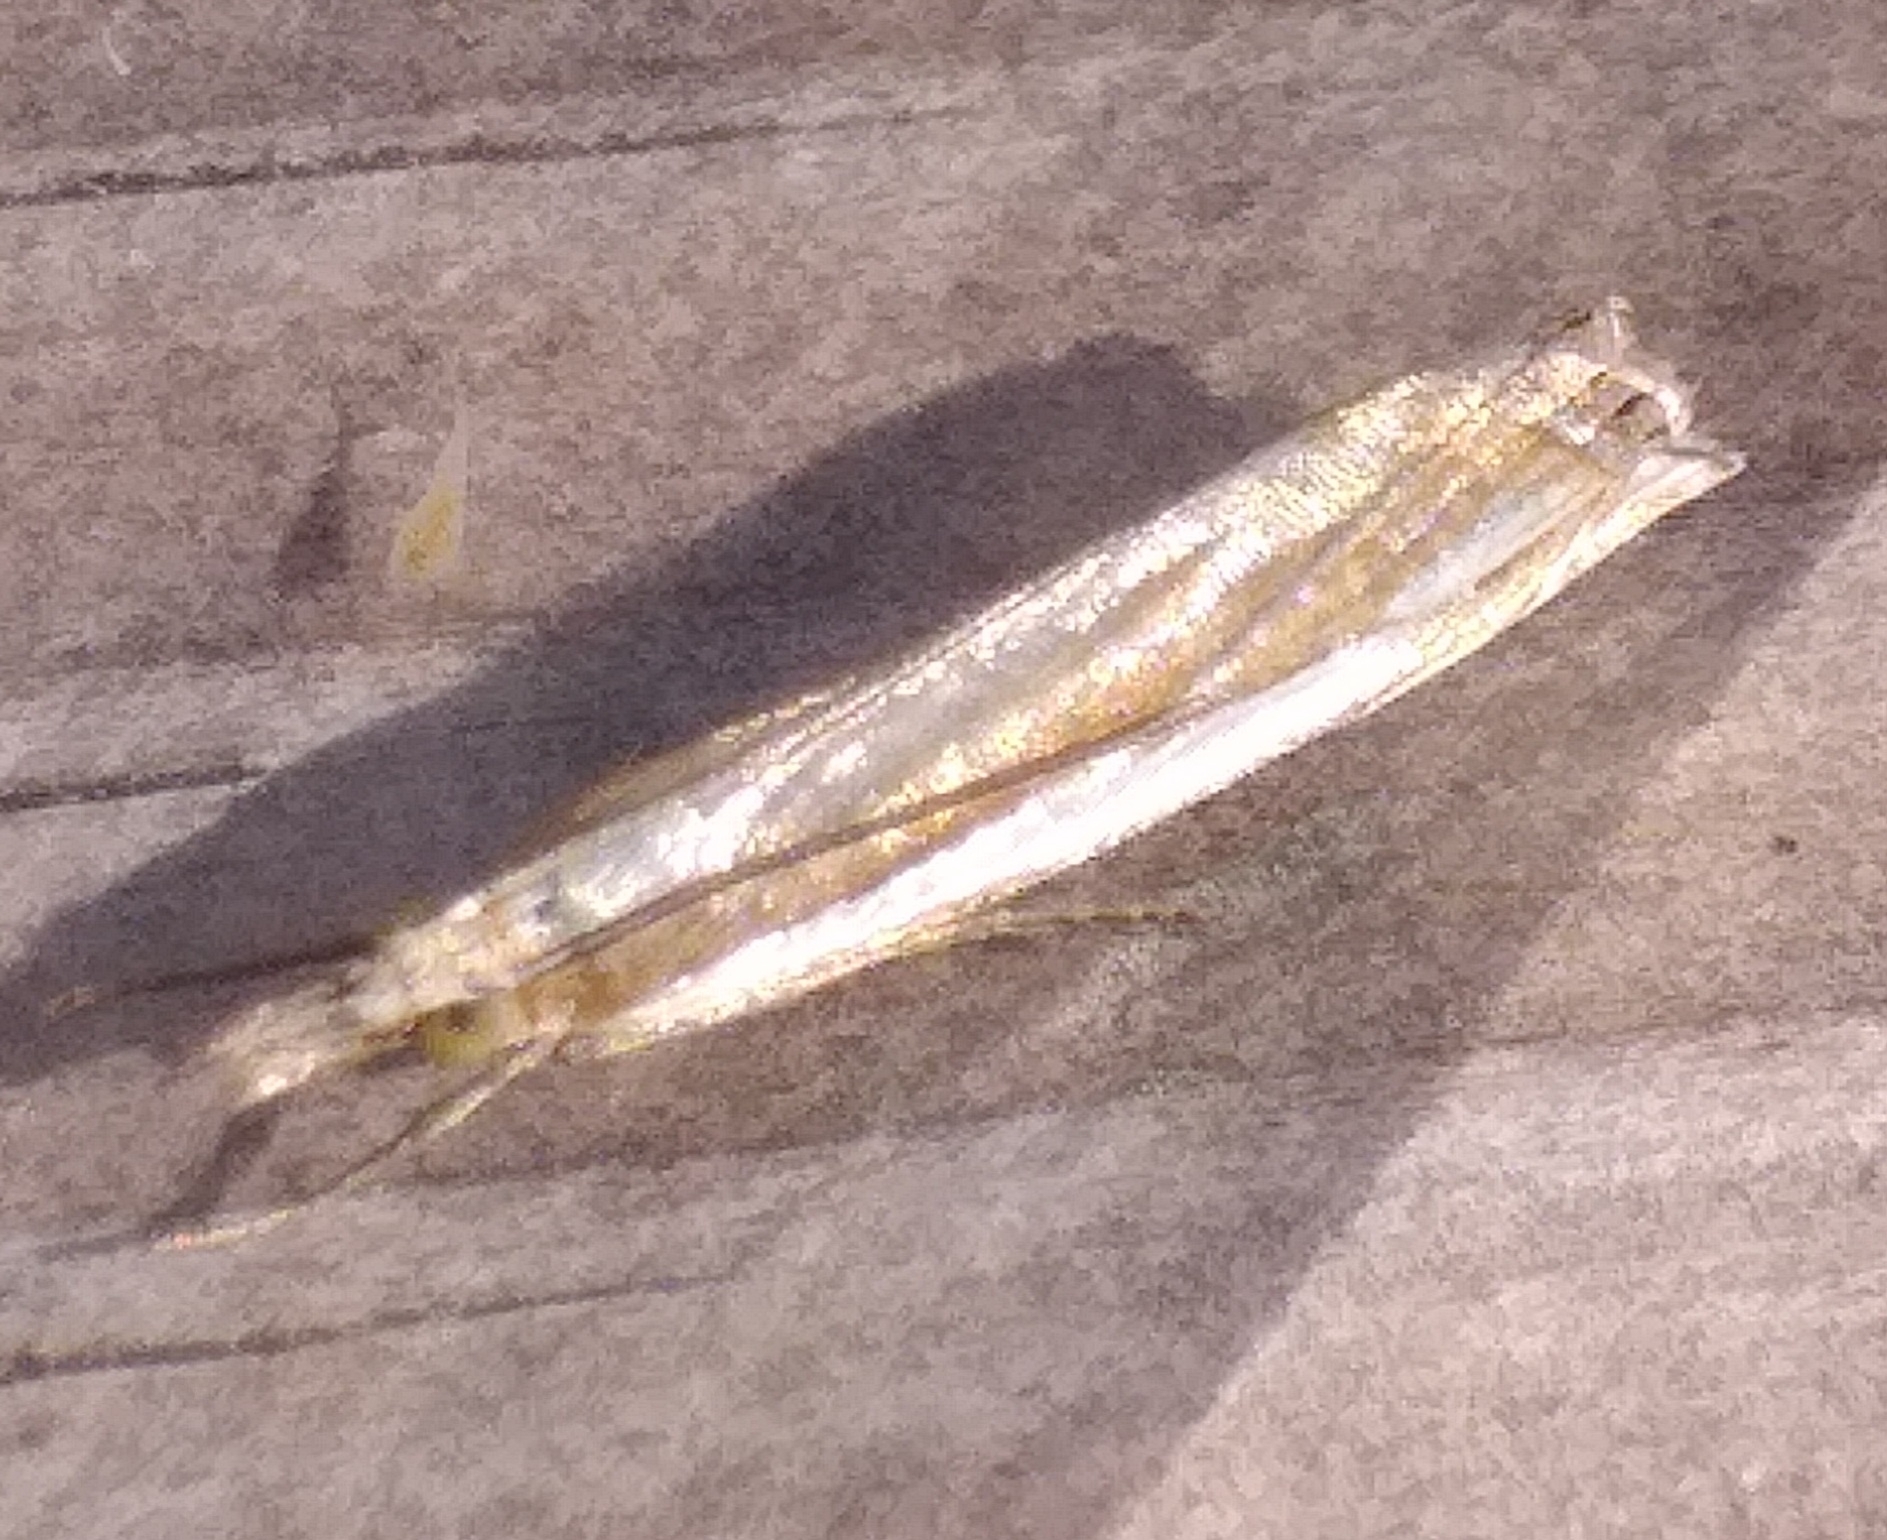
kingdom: Animalia
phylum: Arthropoda
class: Insecta
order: Lepidoptera
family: Crambidae
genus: Crambus
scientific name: Crambus pascuella
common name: Inlaid grass-veneer
